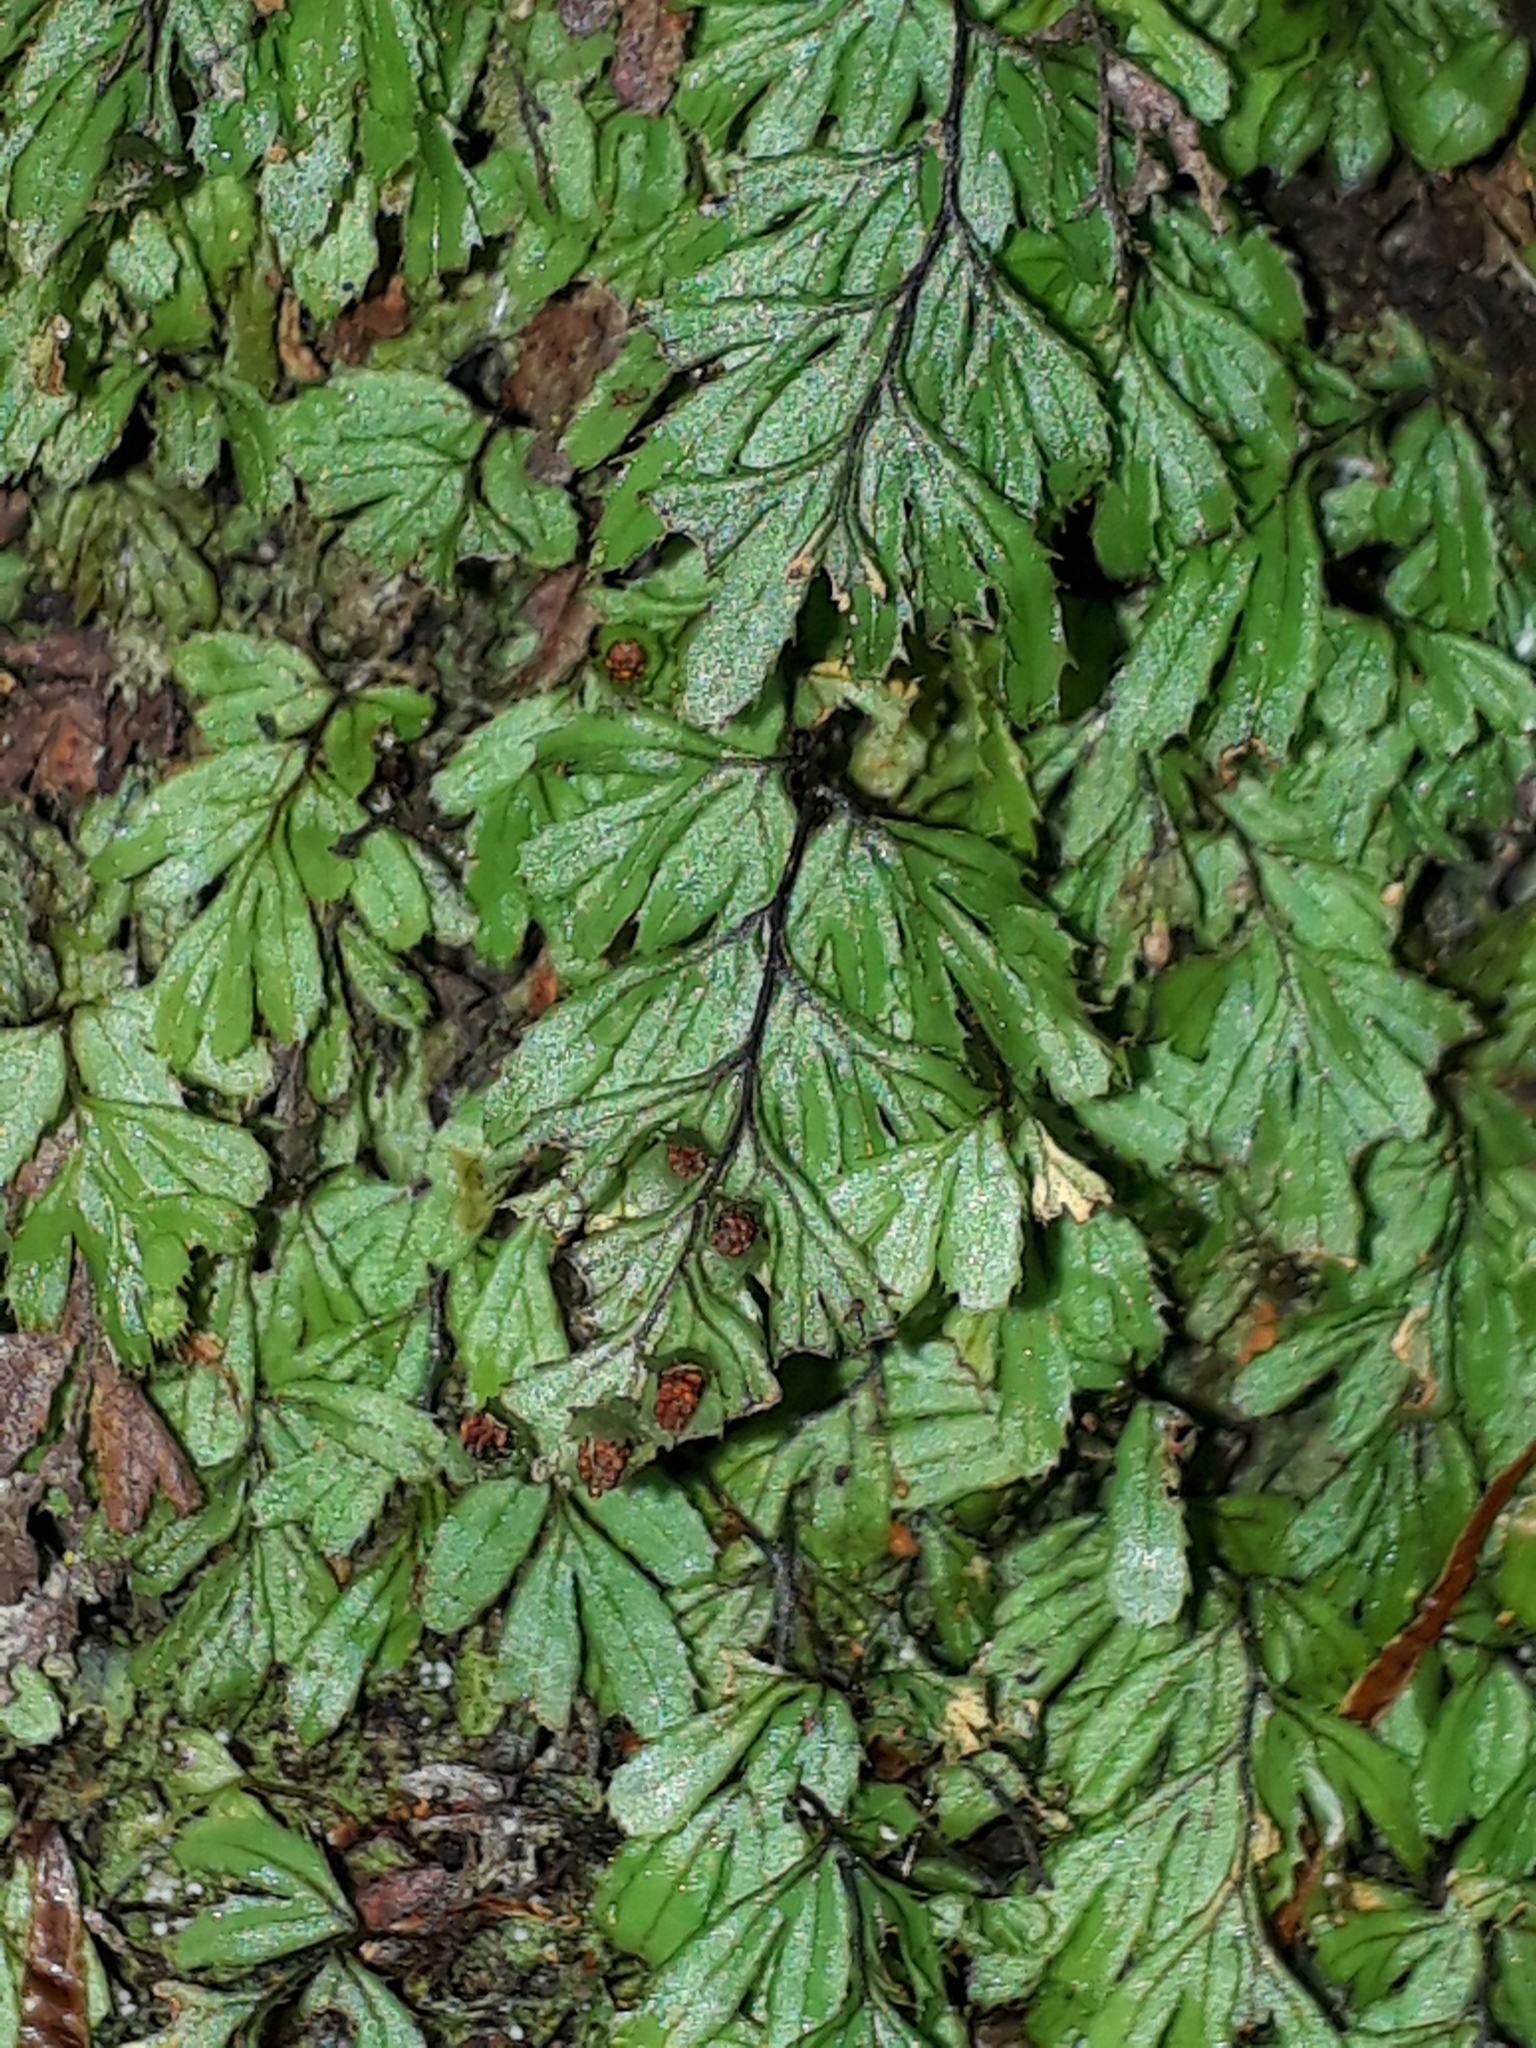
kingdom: Plantae
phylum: Tracheophyta
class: Polypodiopsida
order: Hymenophyllales
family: Hymenophyllaceae
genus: Hymenophyllum
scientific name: Hymenophyllum revolutum
